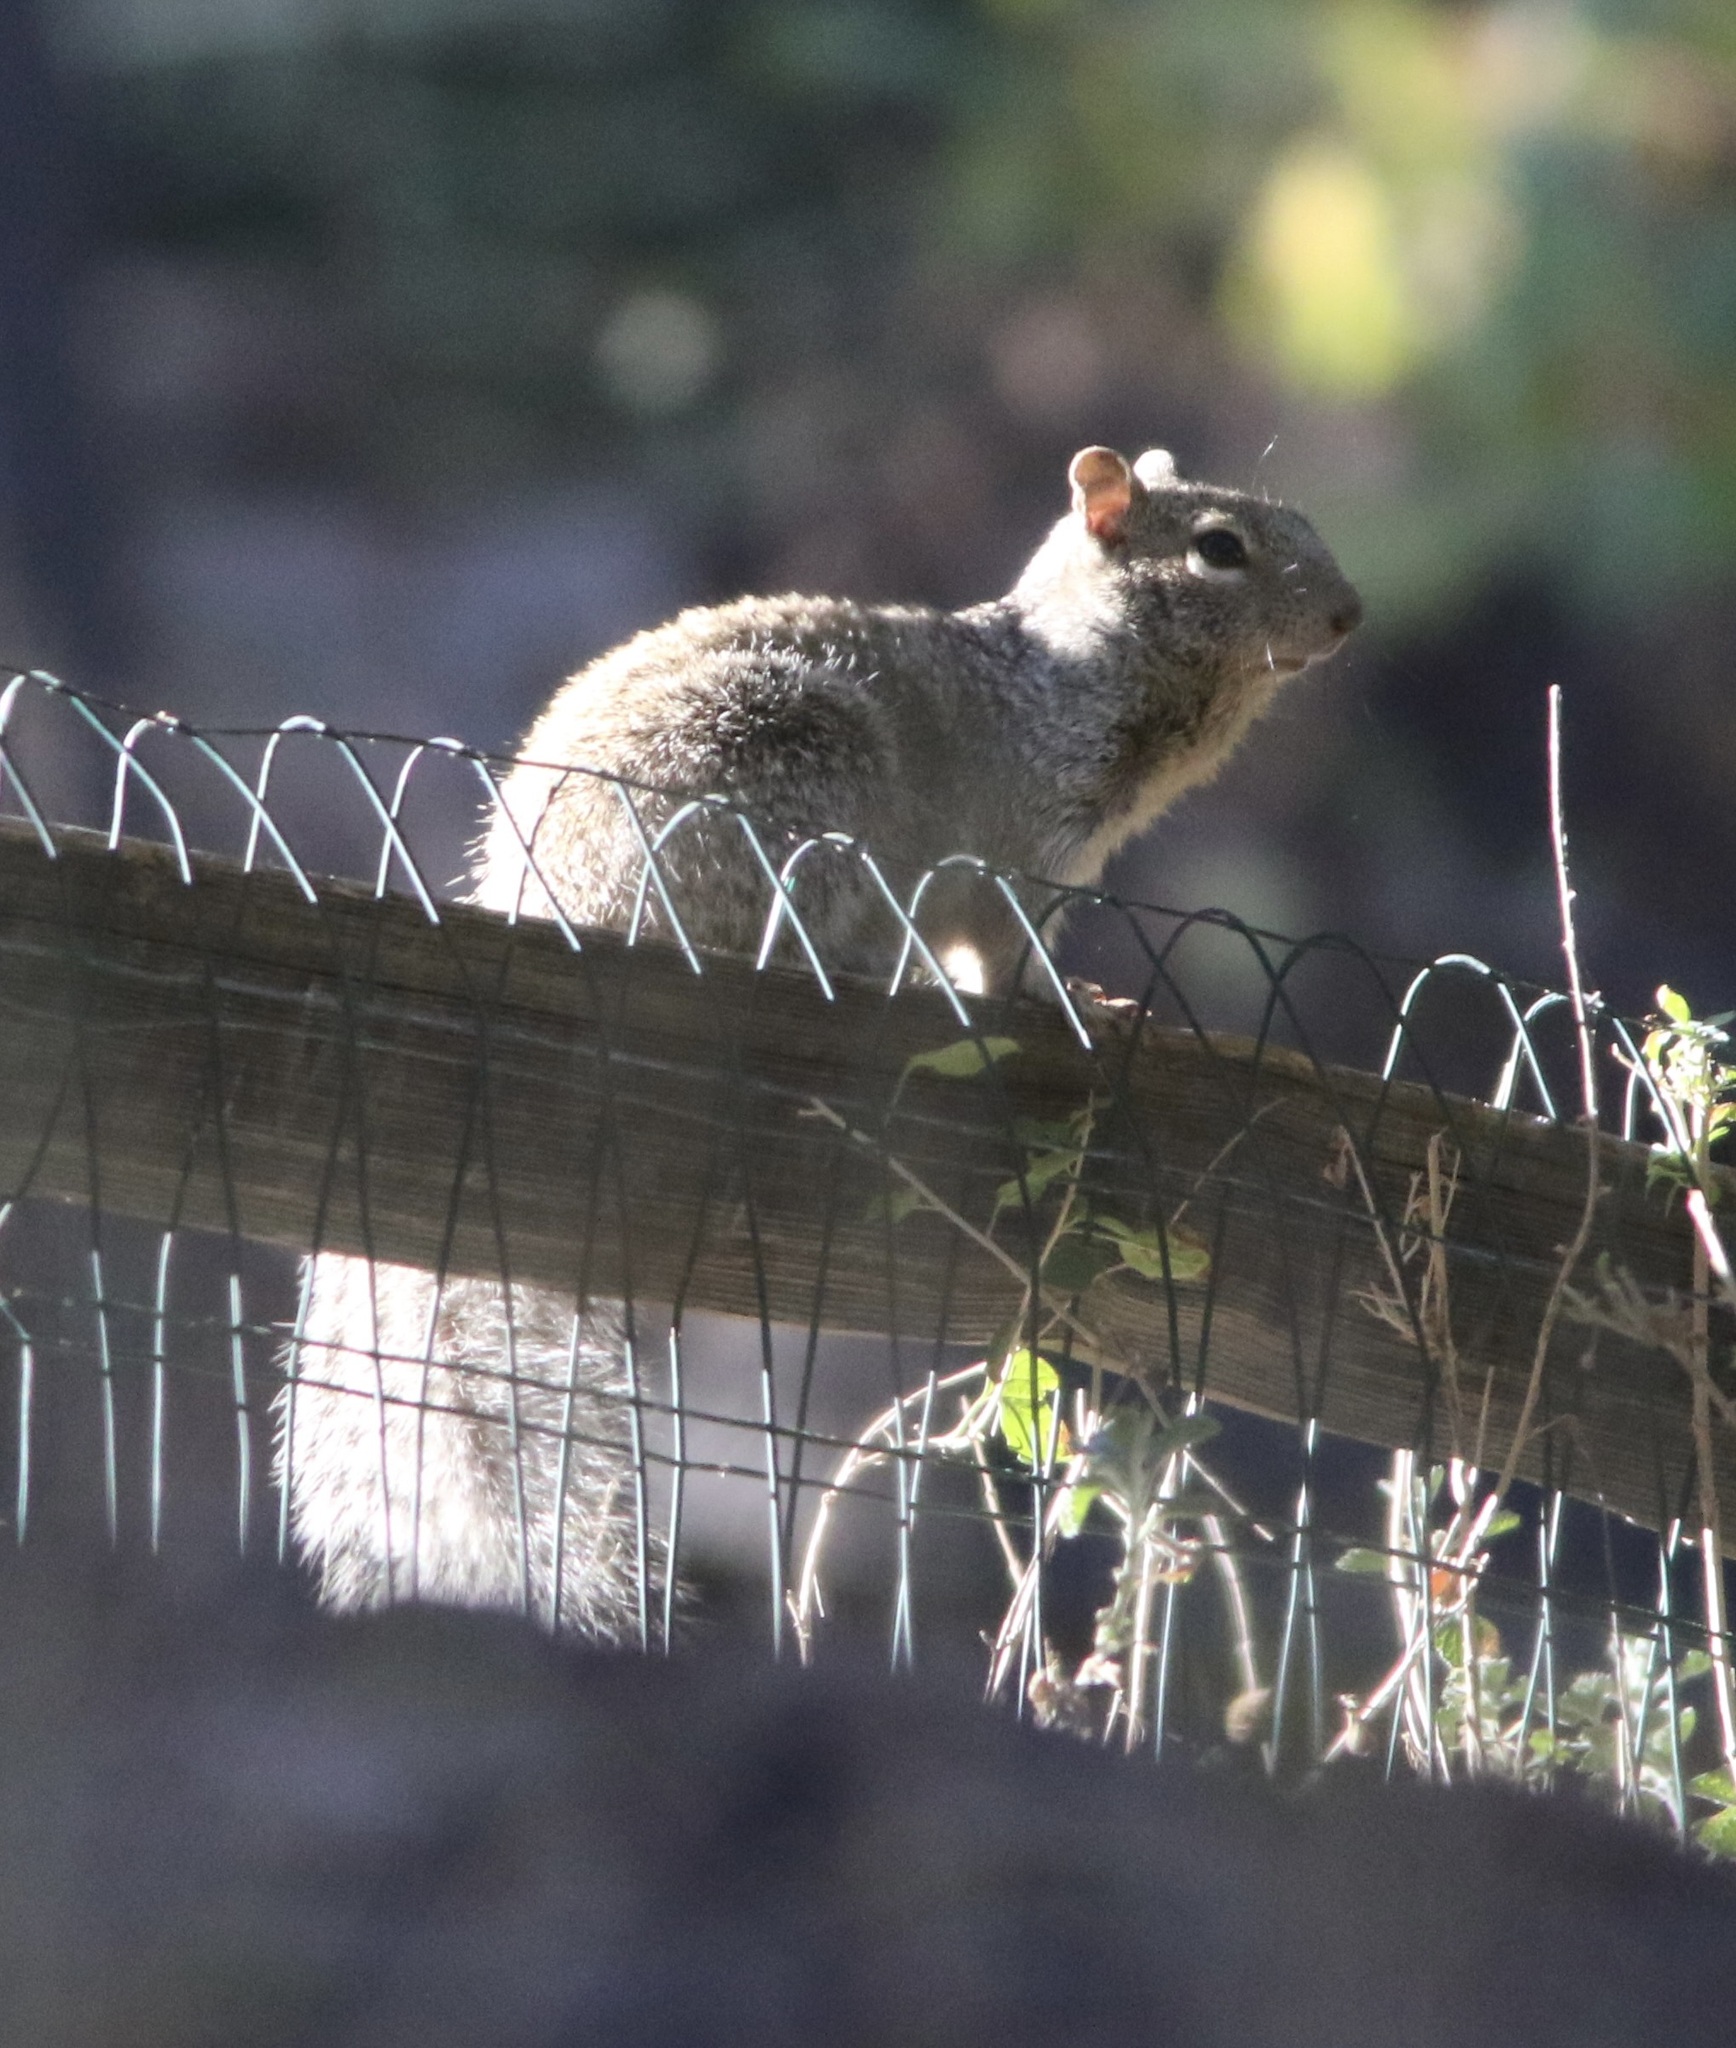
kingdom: Animalia
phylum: Chordata
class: Mammalia
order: Rodentia
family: Sciuridae
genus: Otospermophilus
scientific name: Otospermophilus variegatus
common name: Rock squirrel
